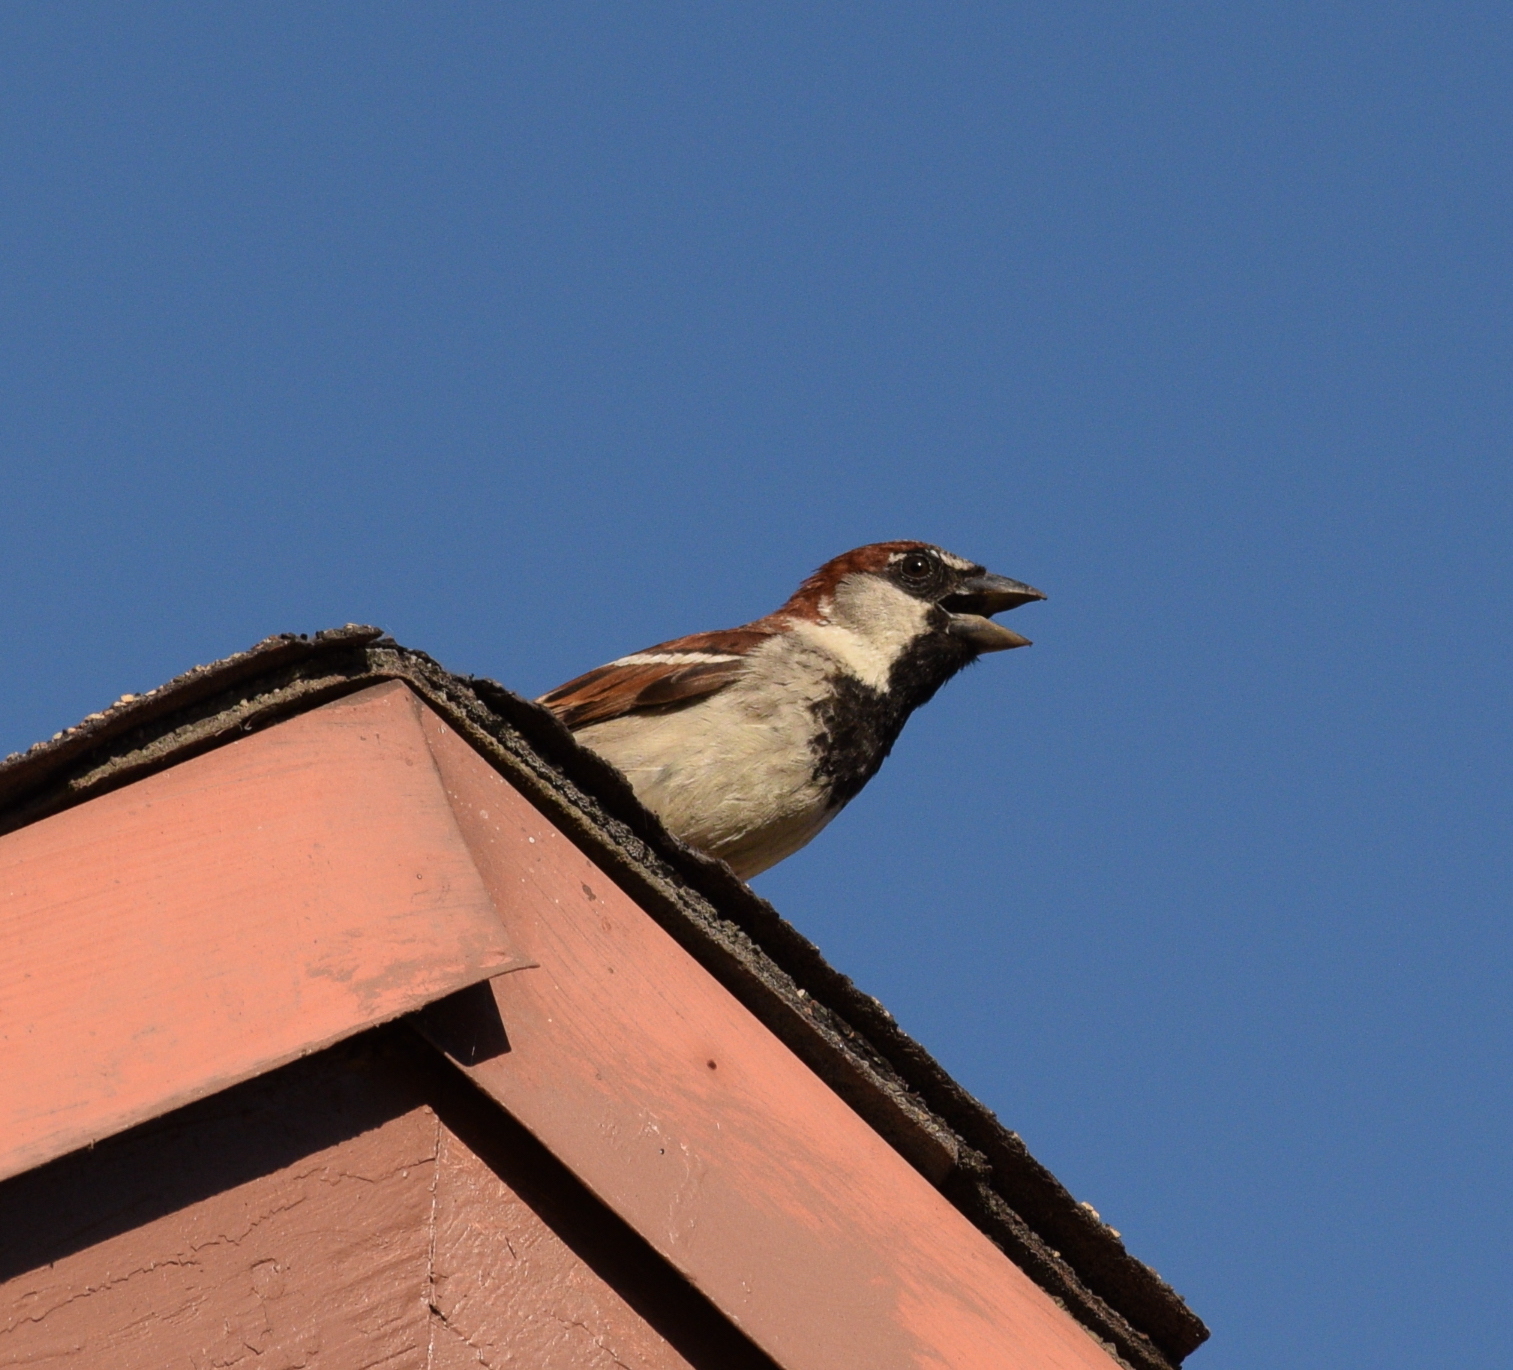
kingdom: Animalia
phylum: Chordata
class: Aves
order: Passeriformes
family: Passeridae
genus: Passer
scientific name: Passer domesticus
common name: House sparrow
